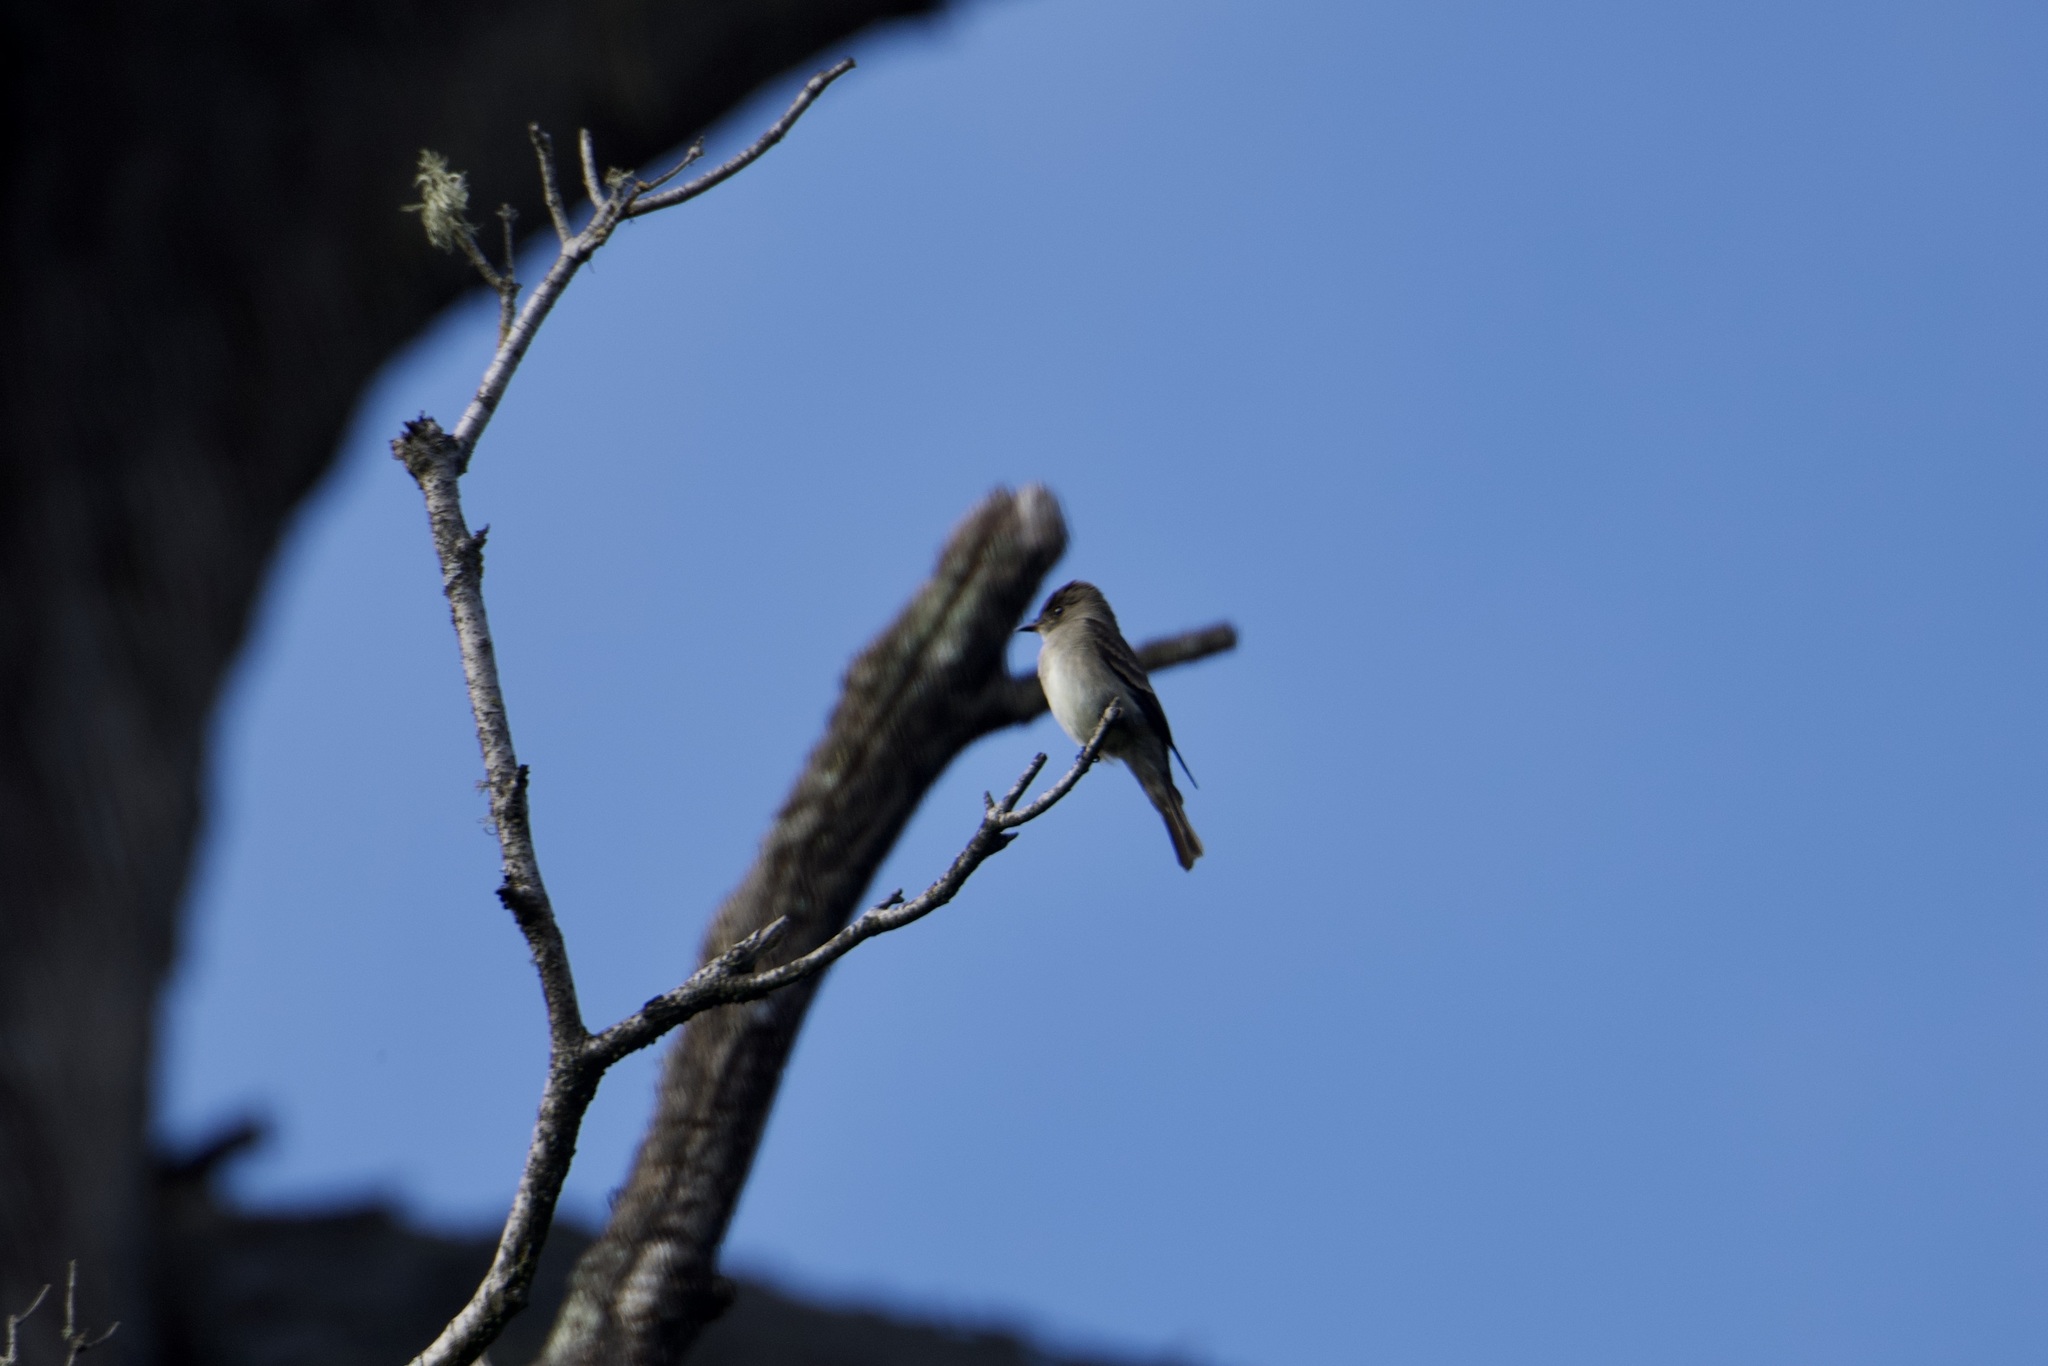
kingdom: Animalia
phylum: Chordata
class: Aves
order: Passeriformes
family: Tyrannidae
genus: Contopus
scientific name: Contopus sordidulus
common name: Western wood-pewee
